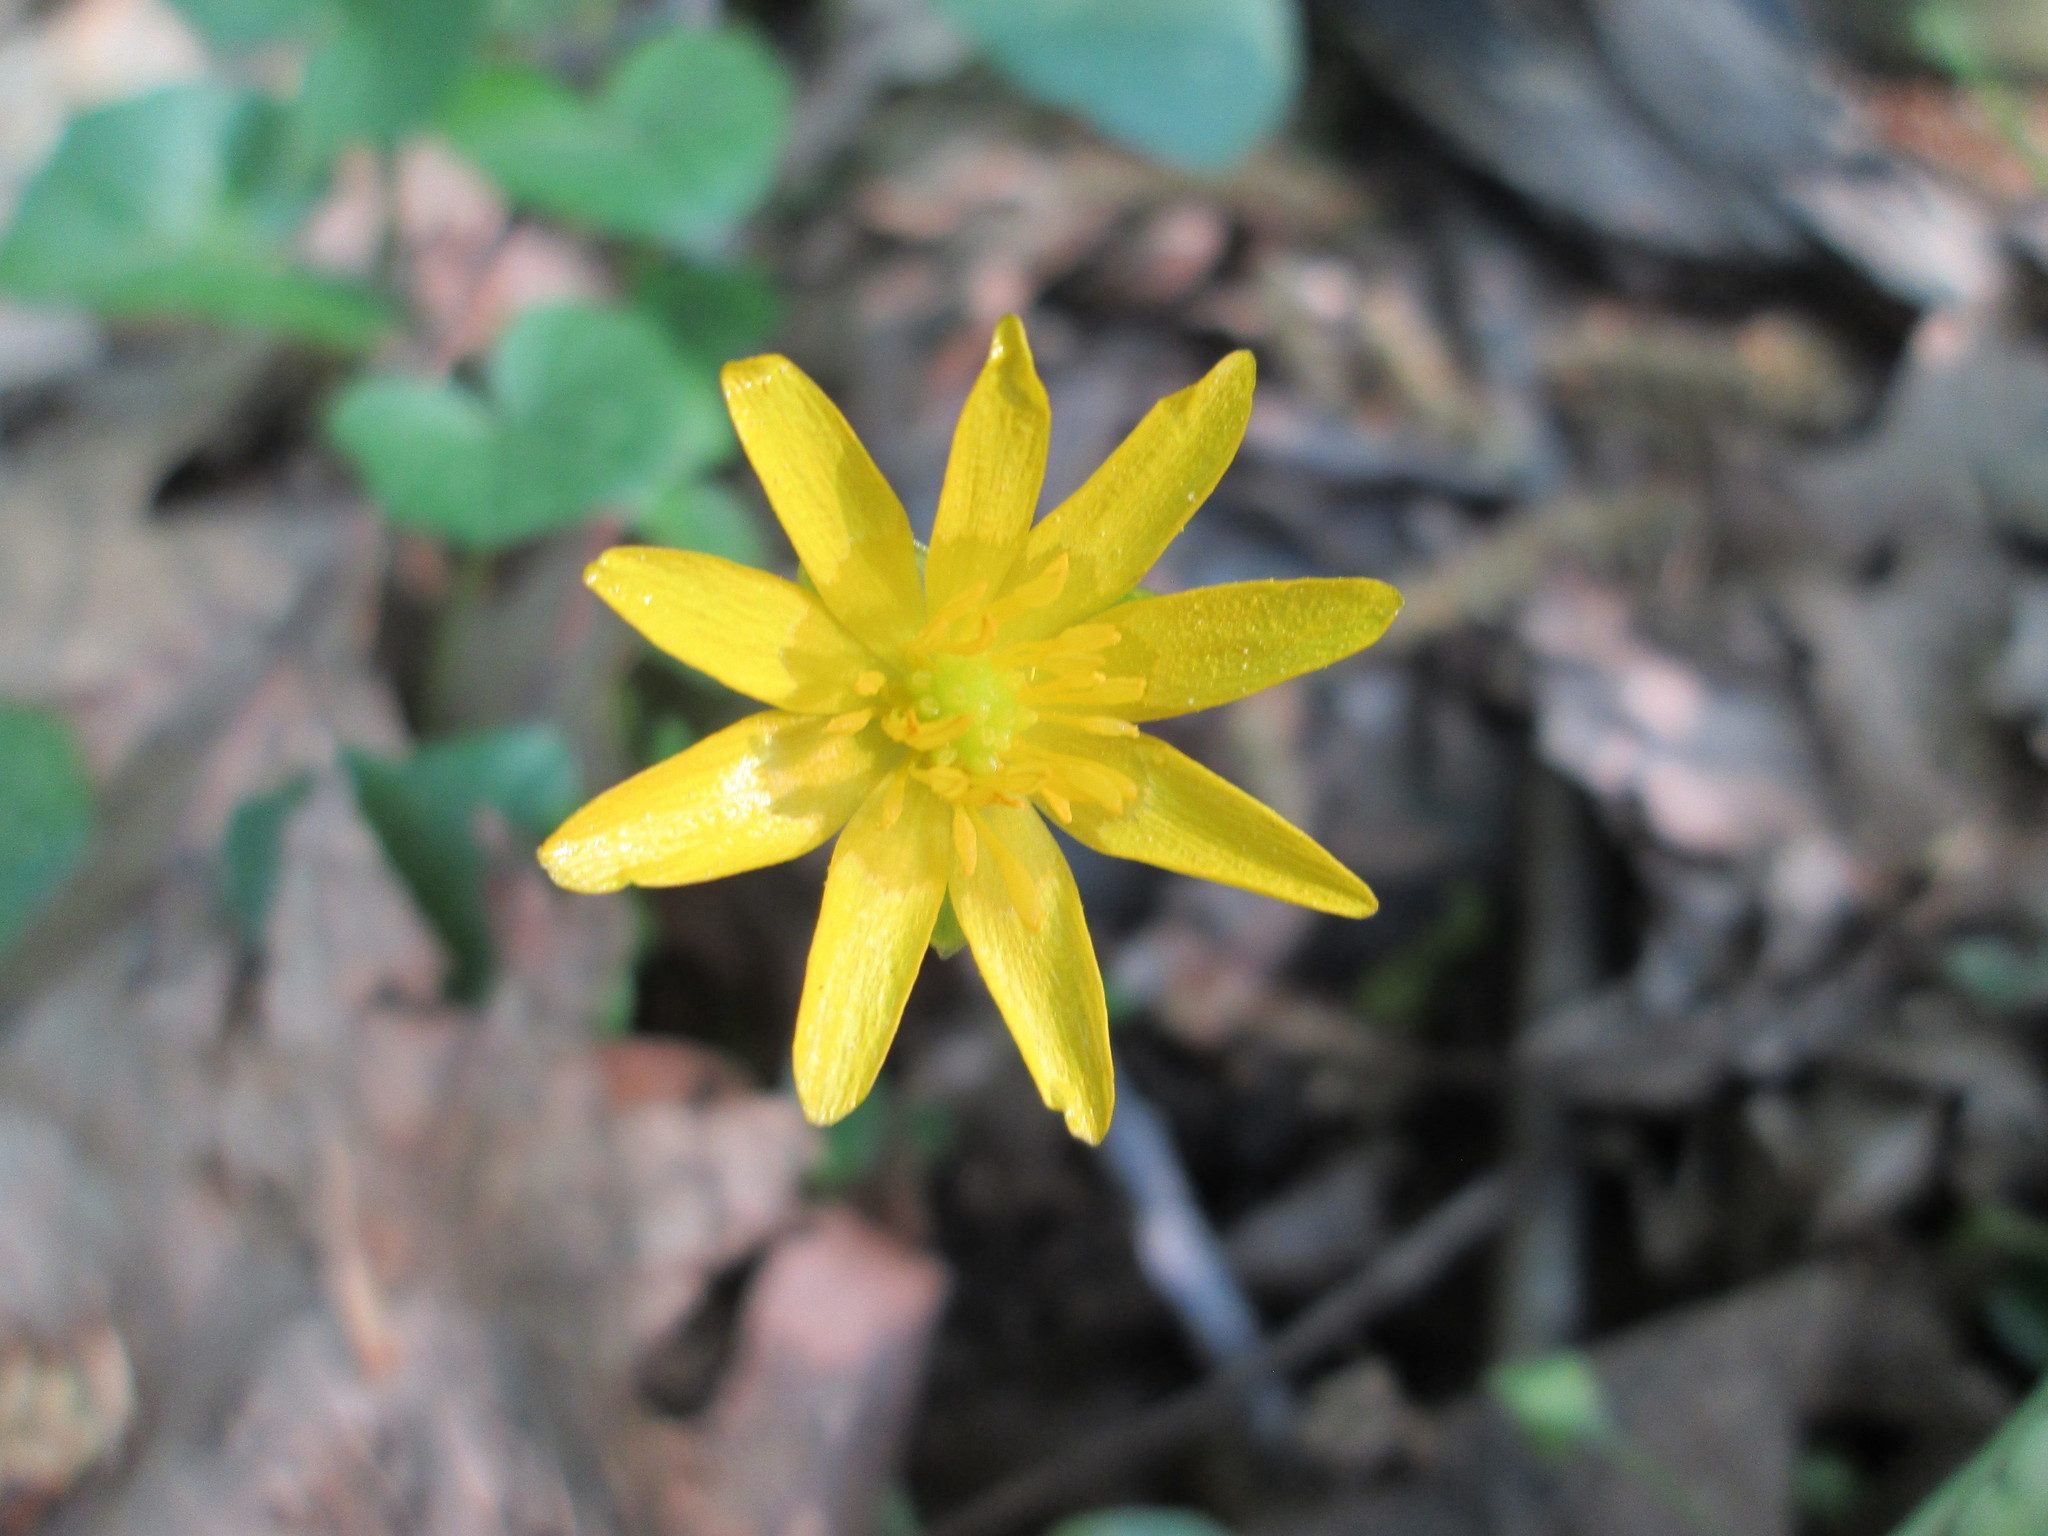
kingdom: Plantae
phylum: Tracheophyta
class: Magnoliopsida
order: Ranunculales
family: Ranunculaceae
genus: Ficaria
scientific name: Ficaria verna
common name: Lesser celandine
